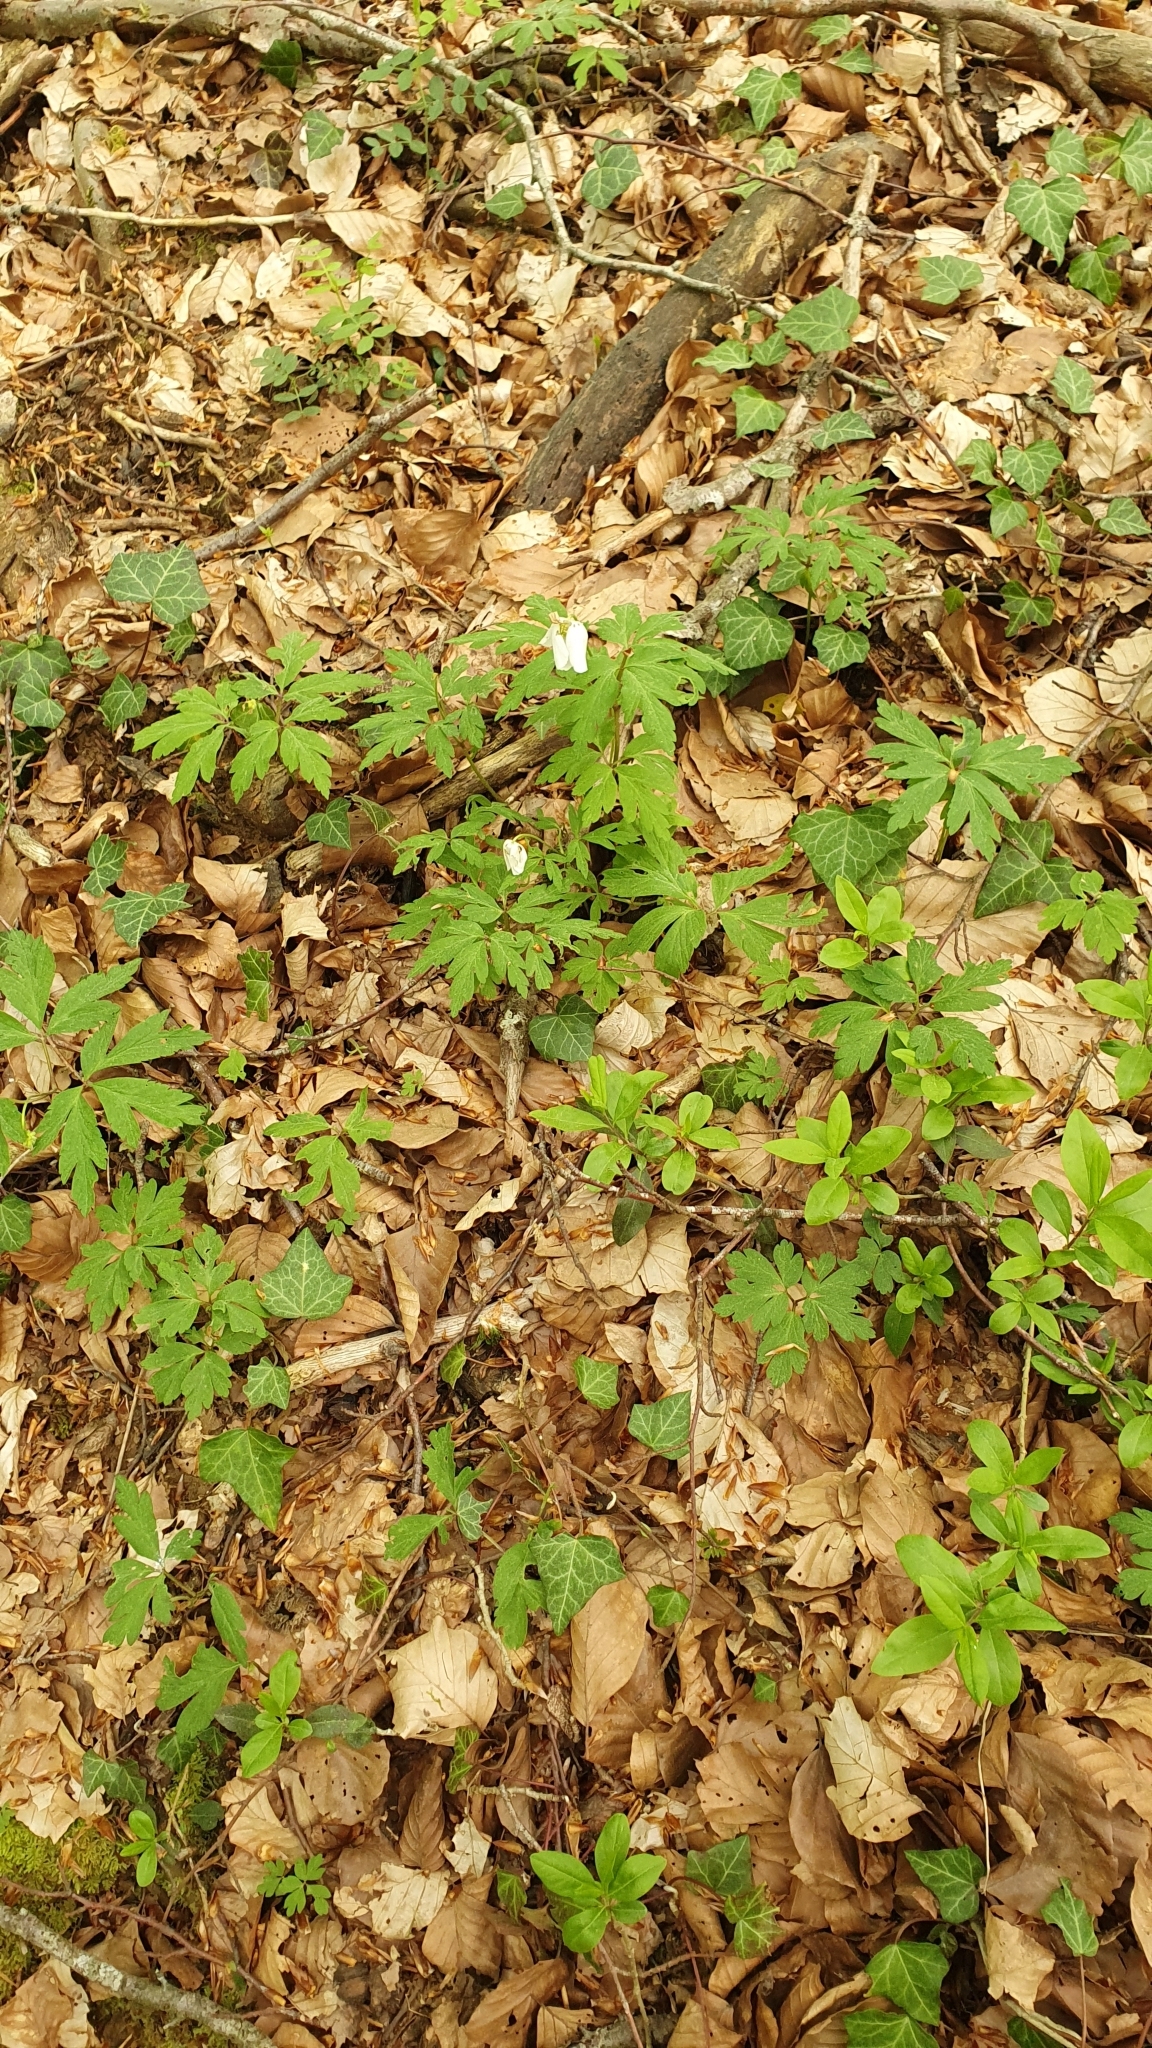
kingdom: Plantae
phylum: Tracheophyta
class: Magnoliopsida
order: Ranunculales
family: Ranunculaceae
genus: Anemone
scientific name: Anemone nemorosa
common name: Wood anemone
